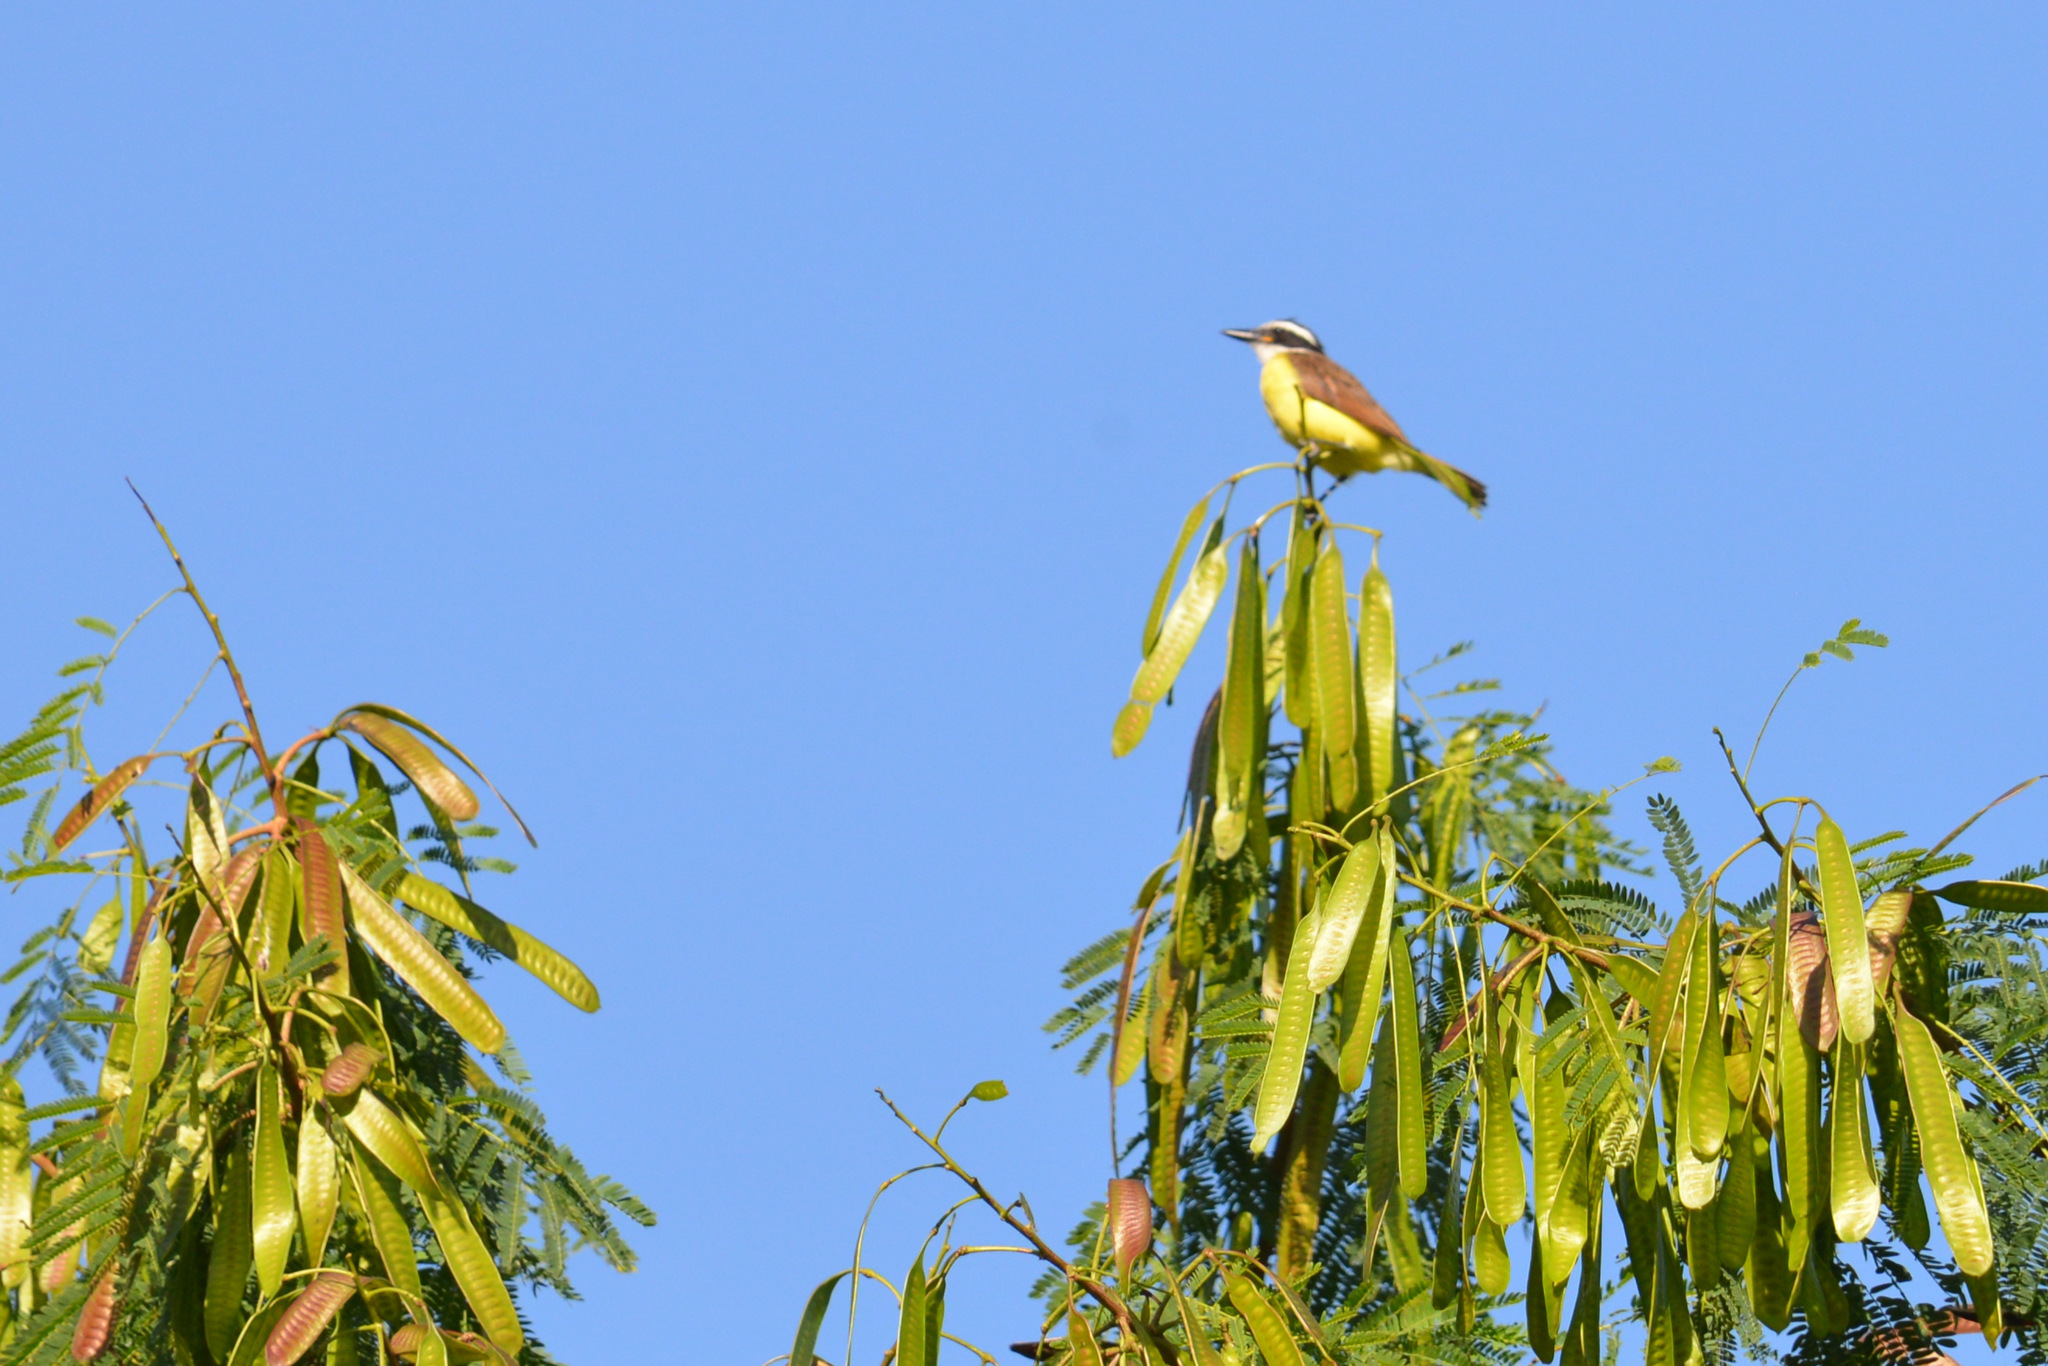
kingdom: Animalia
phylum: Chordata
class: Aves
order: Passeriformes
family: Tyrannidae
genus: Pitangus
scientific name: Pitangus sulphuratus
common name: Great kiskadee
